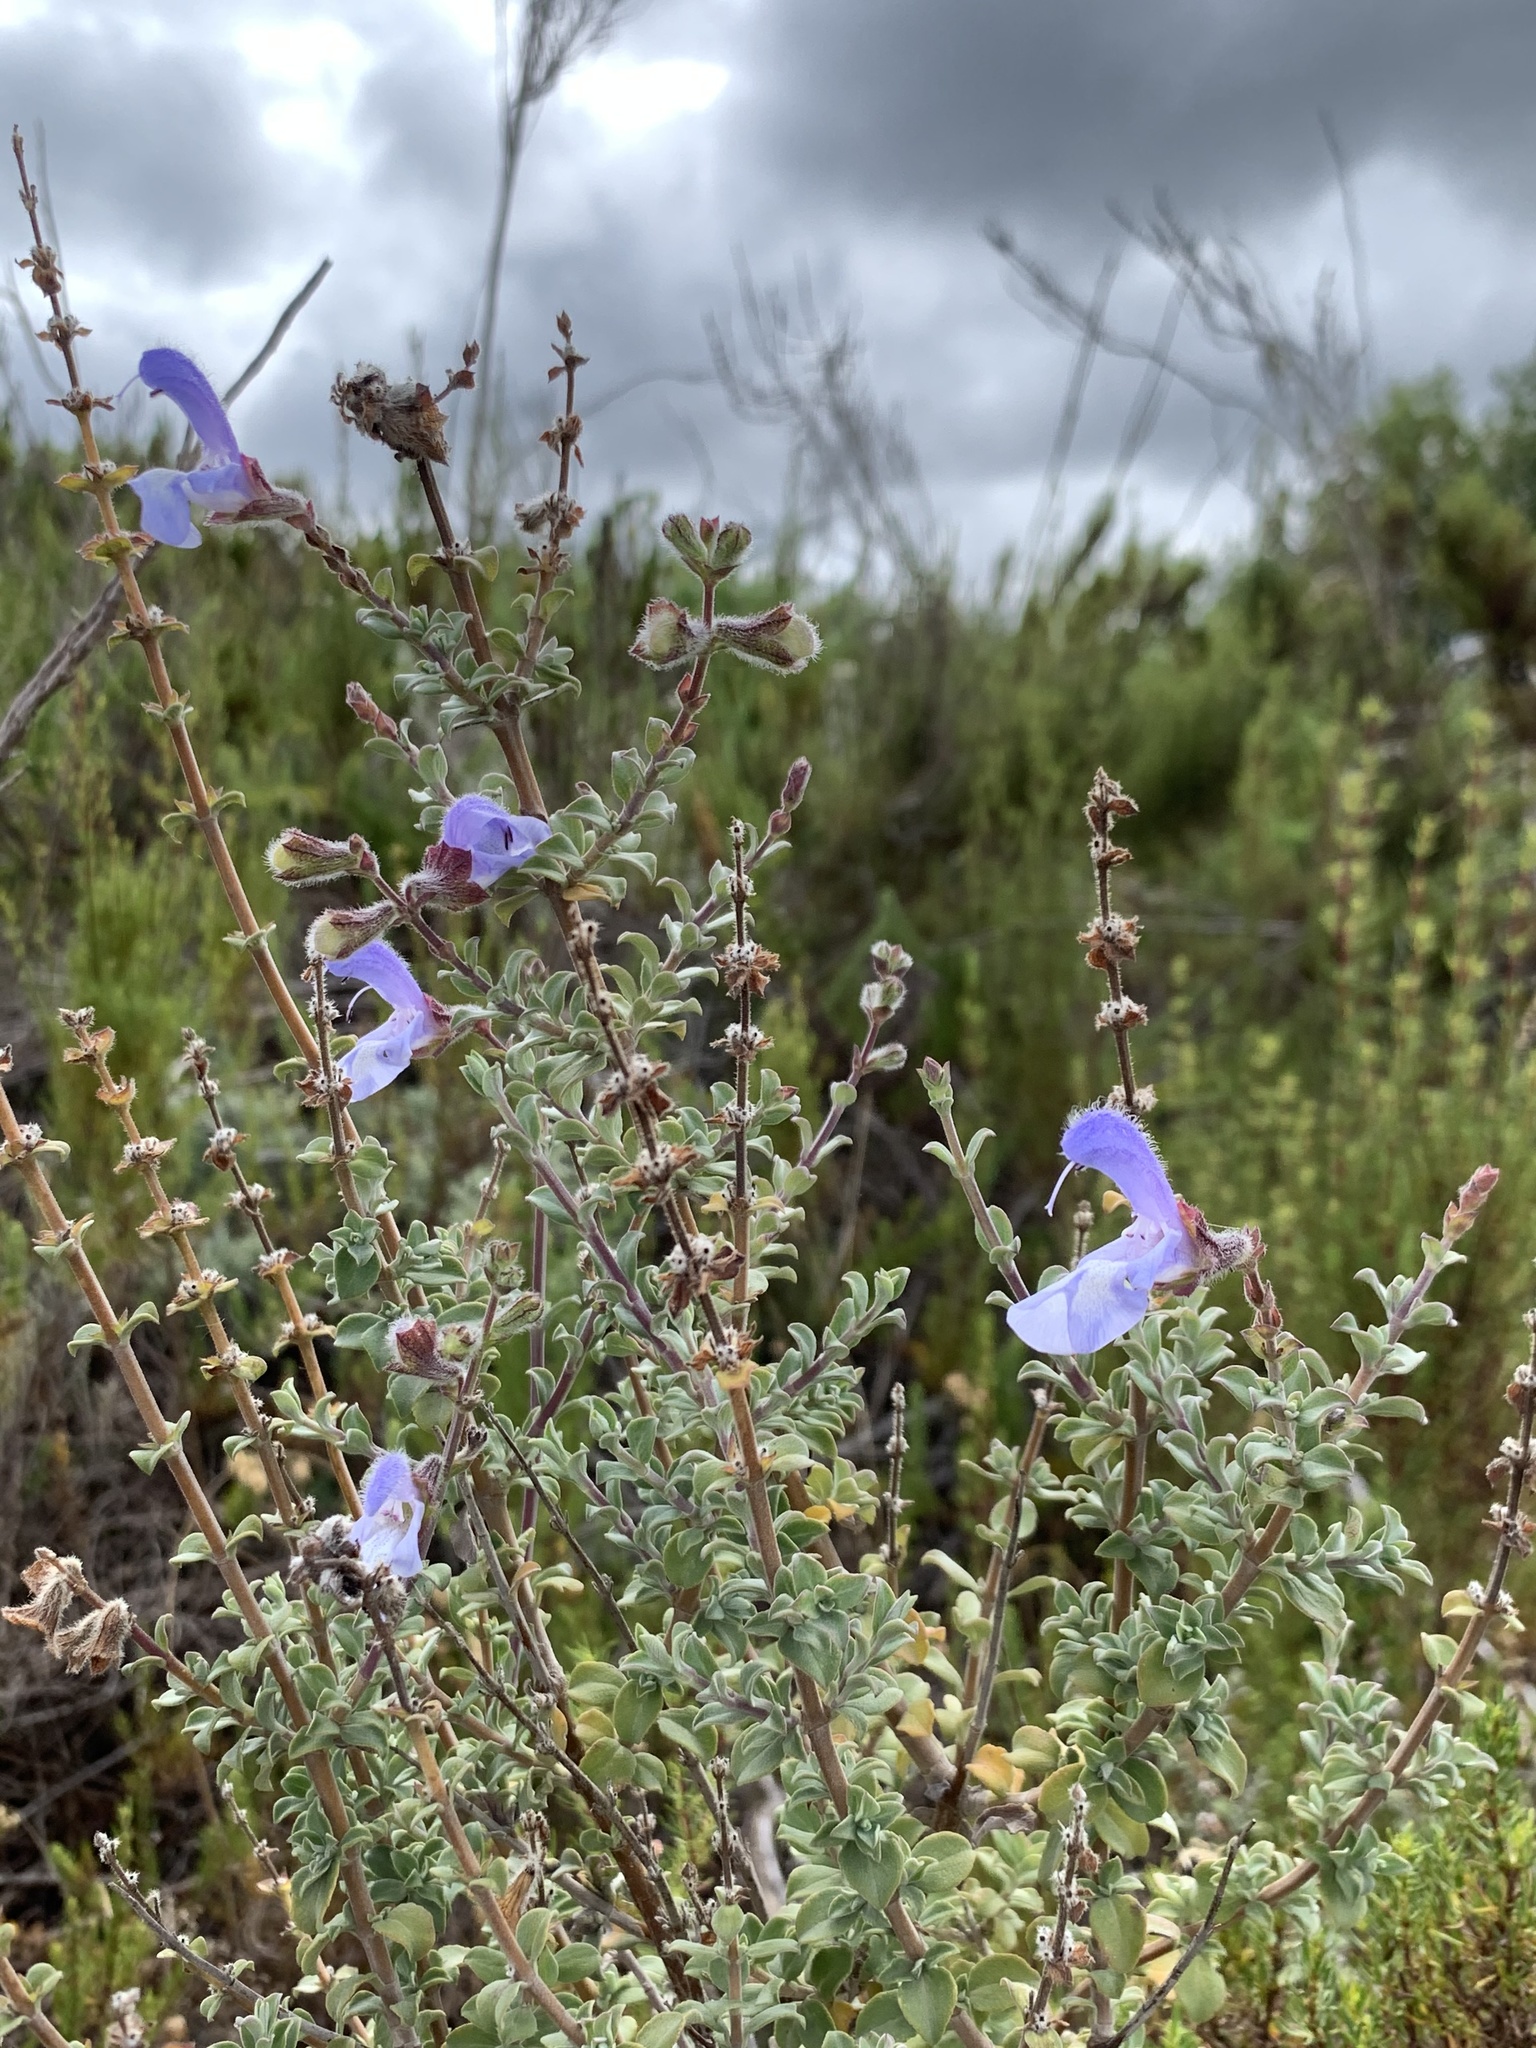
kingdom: Plantae
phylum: Tracheophyta
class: Magnoliopsida
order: Lamiales
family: Lamiaceae
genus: Salvia
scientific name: Salvia africana
